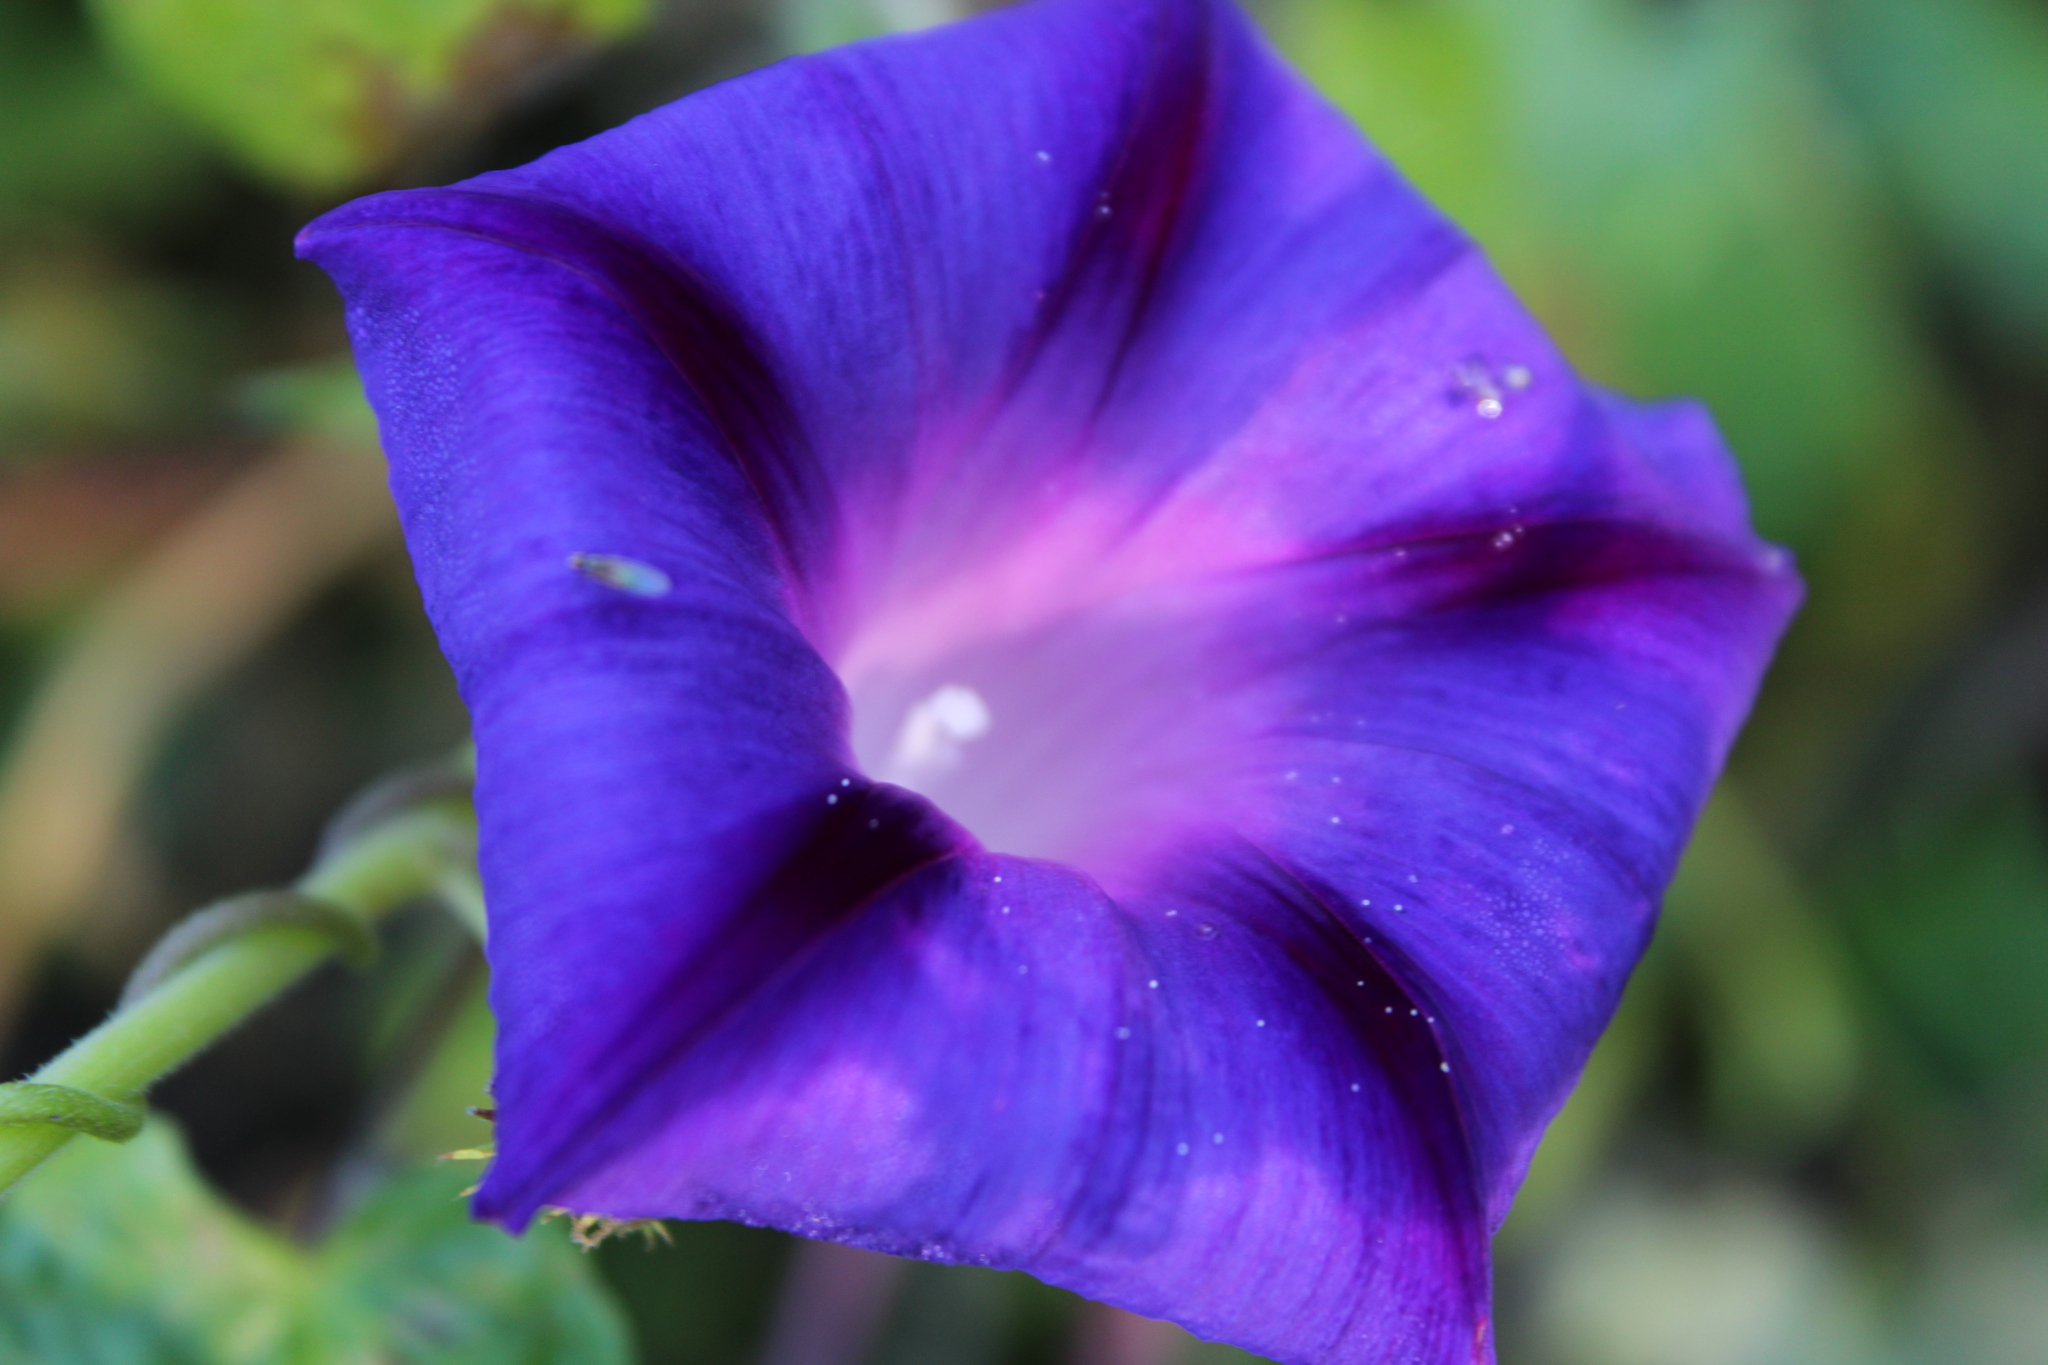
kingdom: Plantae
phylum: Tracheophyta
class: Magnoliopsida
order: Solanales
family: Convolvulaceae
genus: Ipomoea
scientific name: Ipomoea purpurea
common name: Common morning-glory
